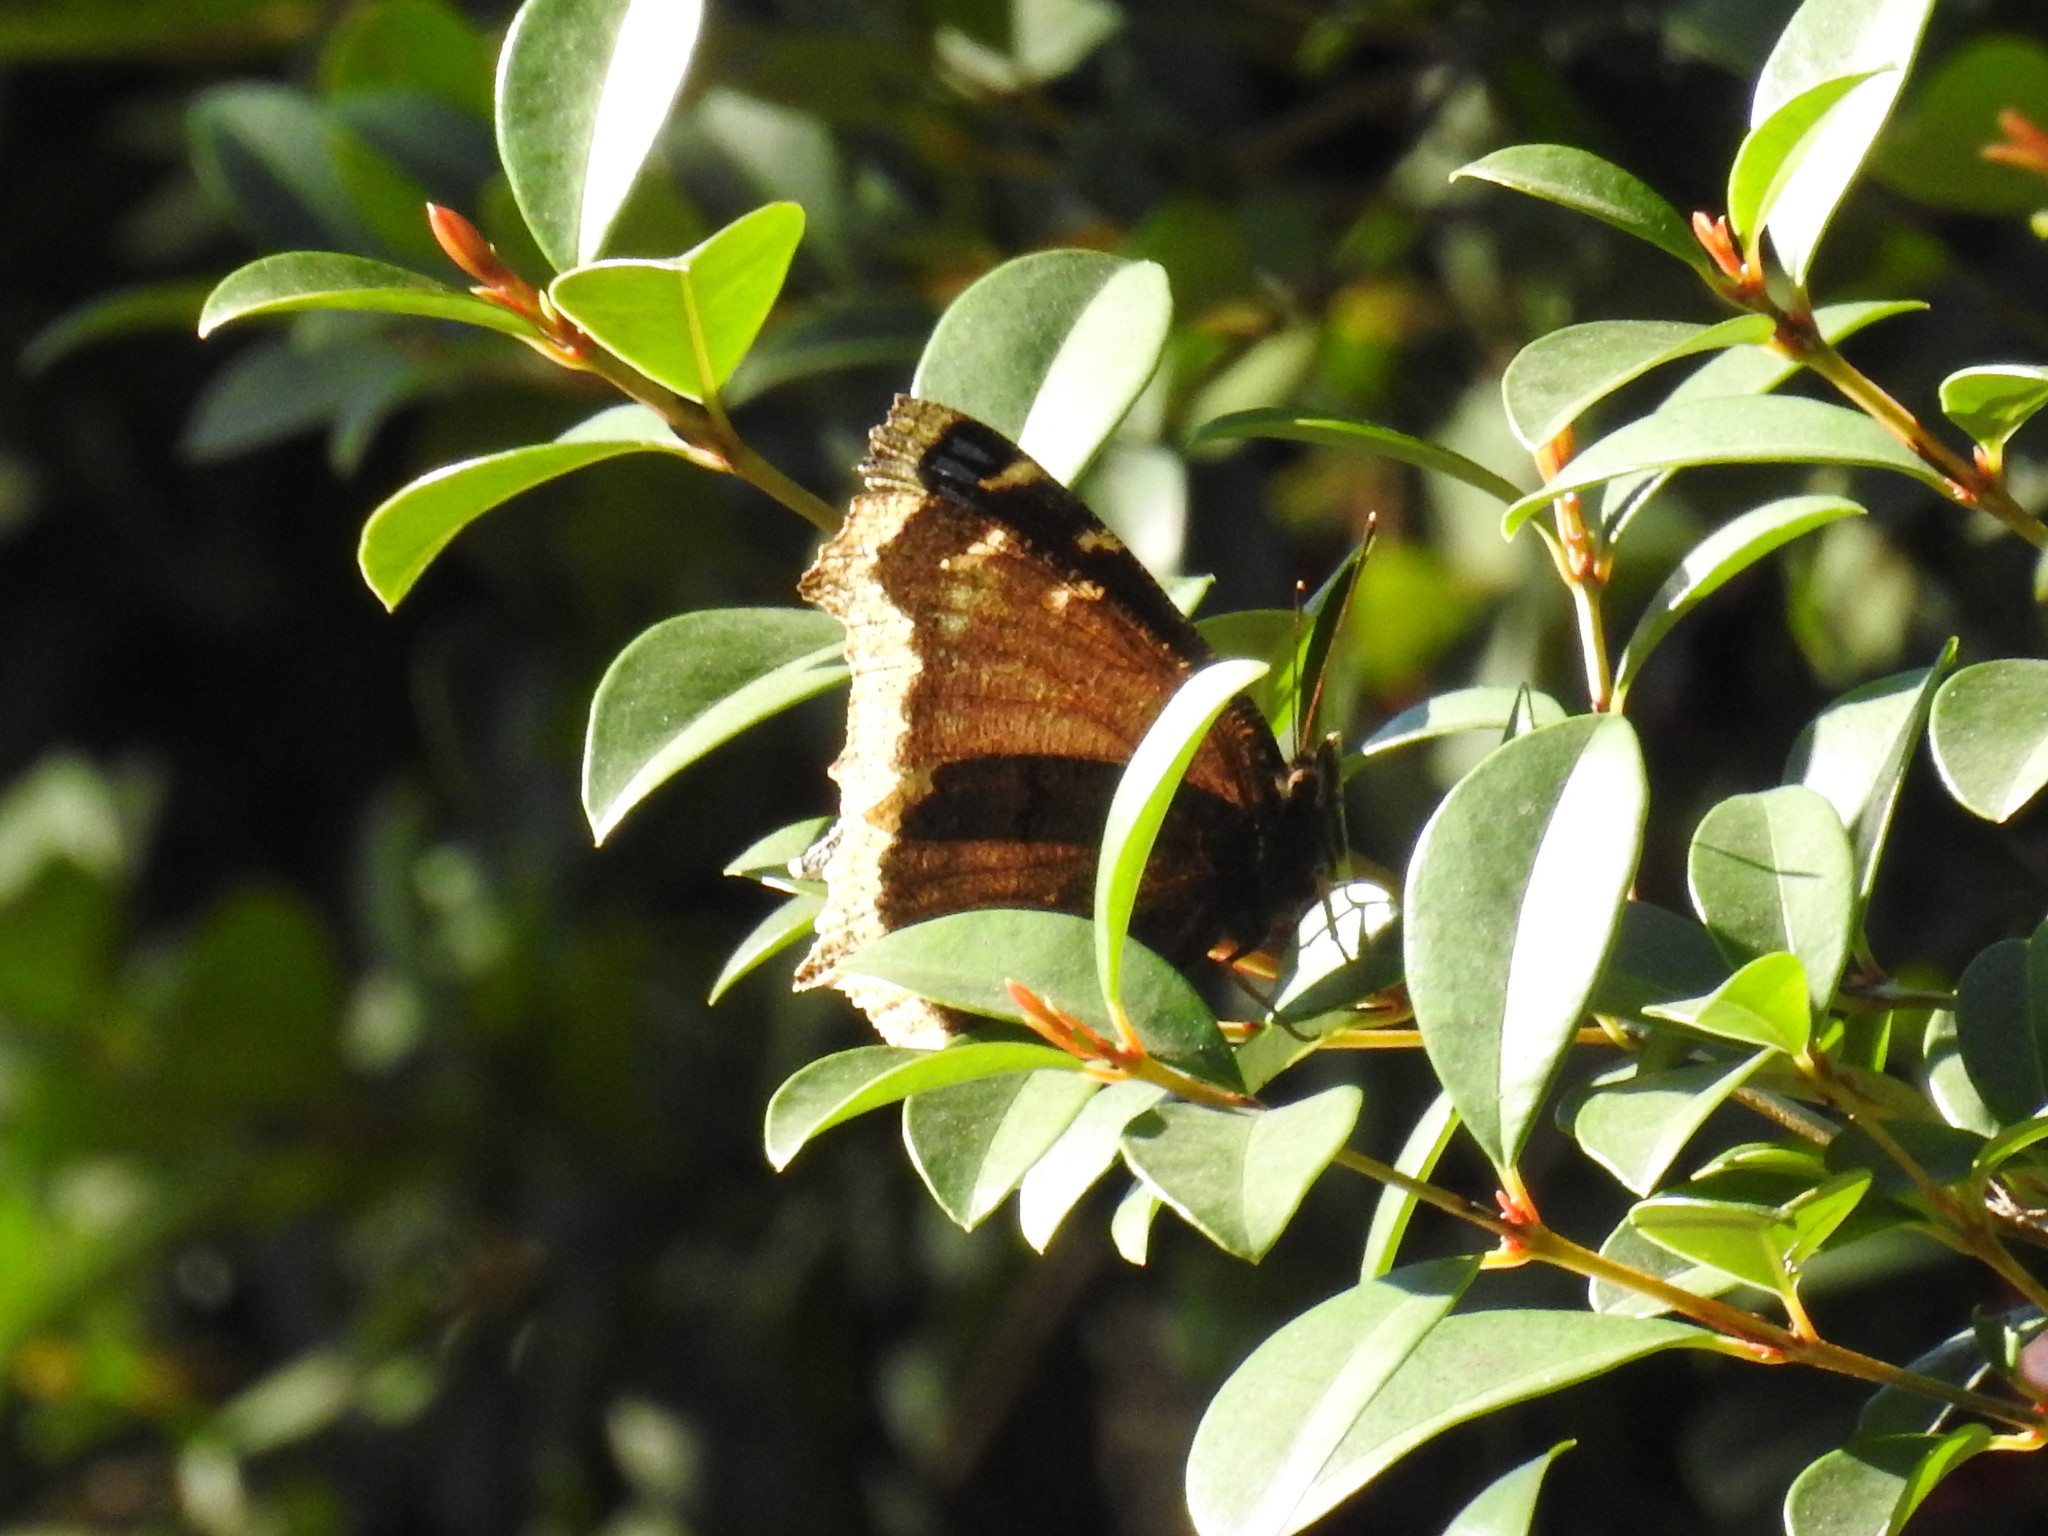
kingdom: Animalia
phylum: Arthropoda
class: Insecta
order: Lepidoptera
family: Nymphalidae
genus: Nymphalis
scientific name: Nymphalis antiopa
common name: Camberwell beauty
